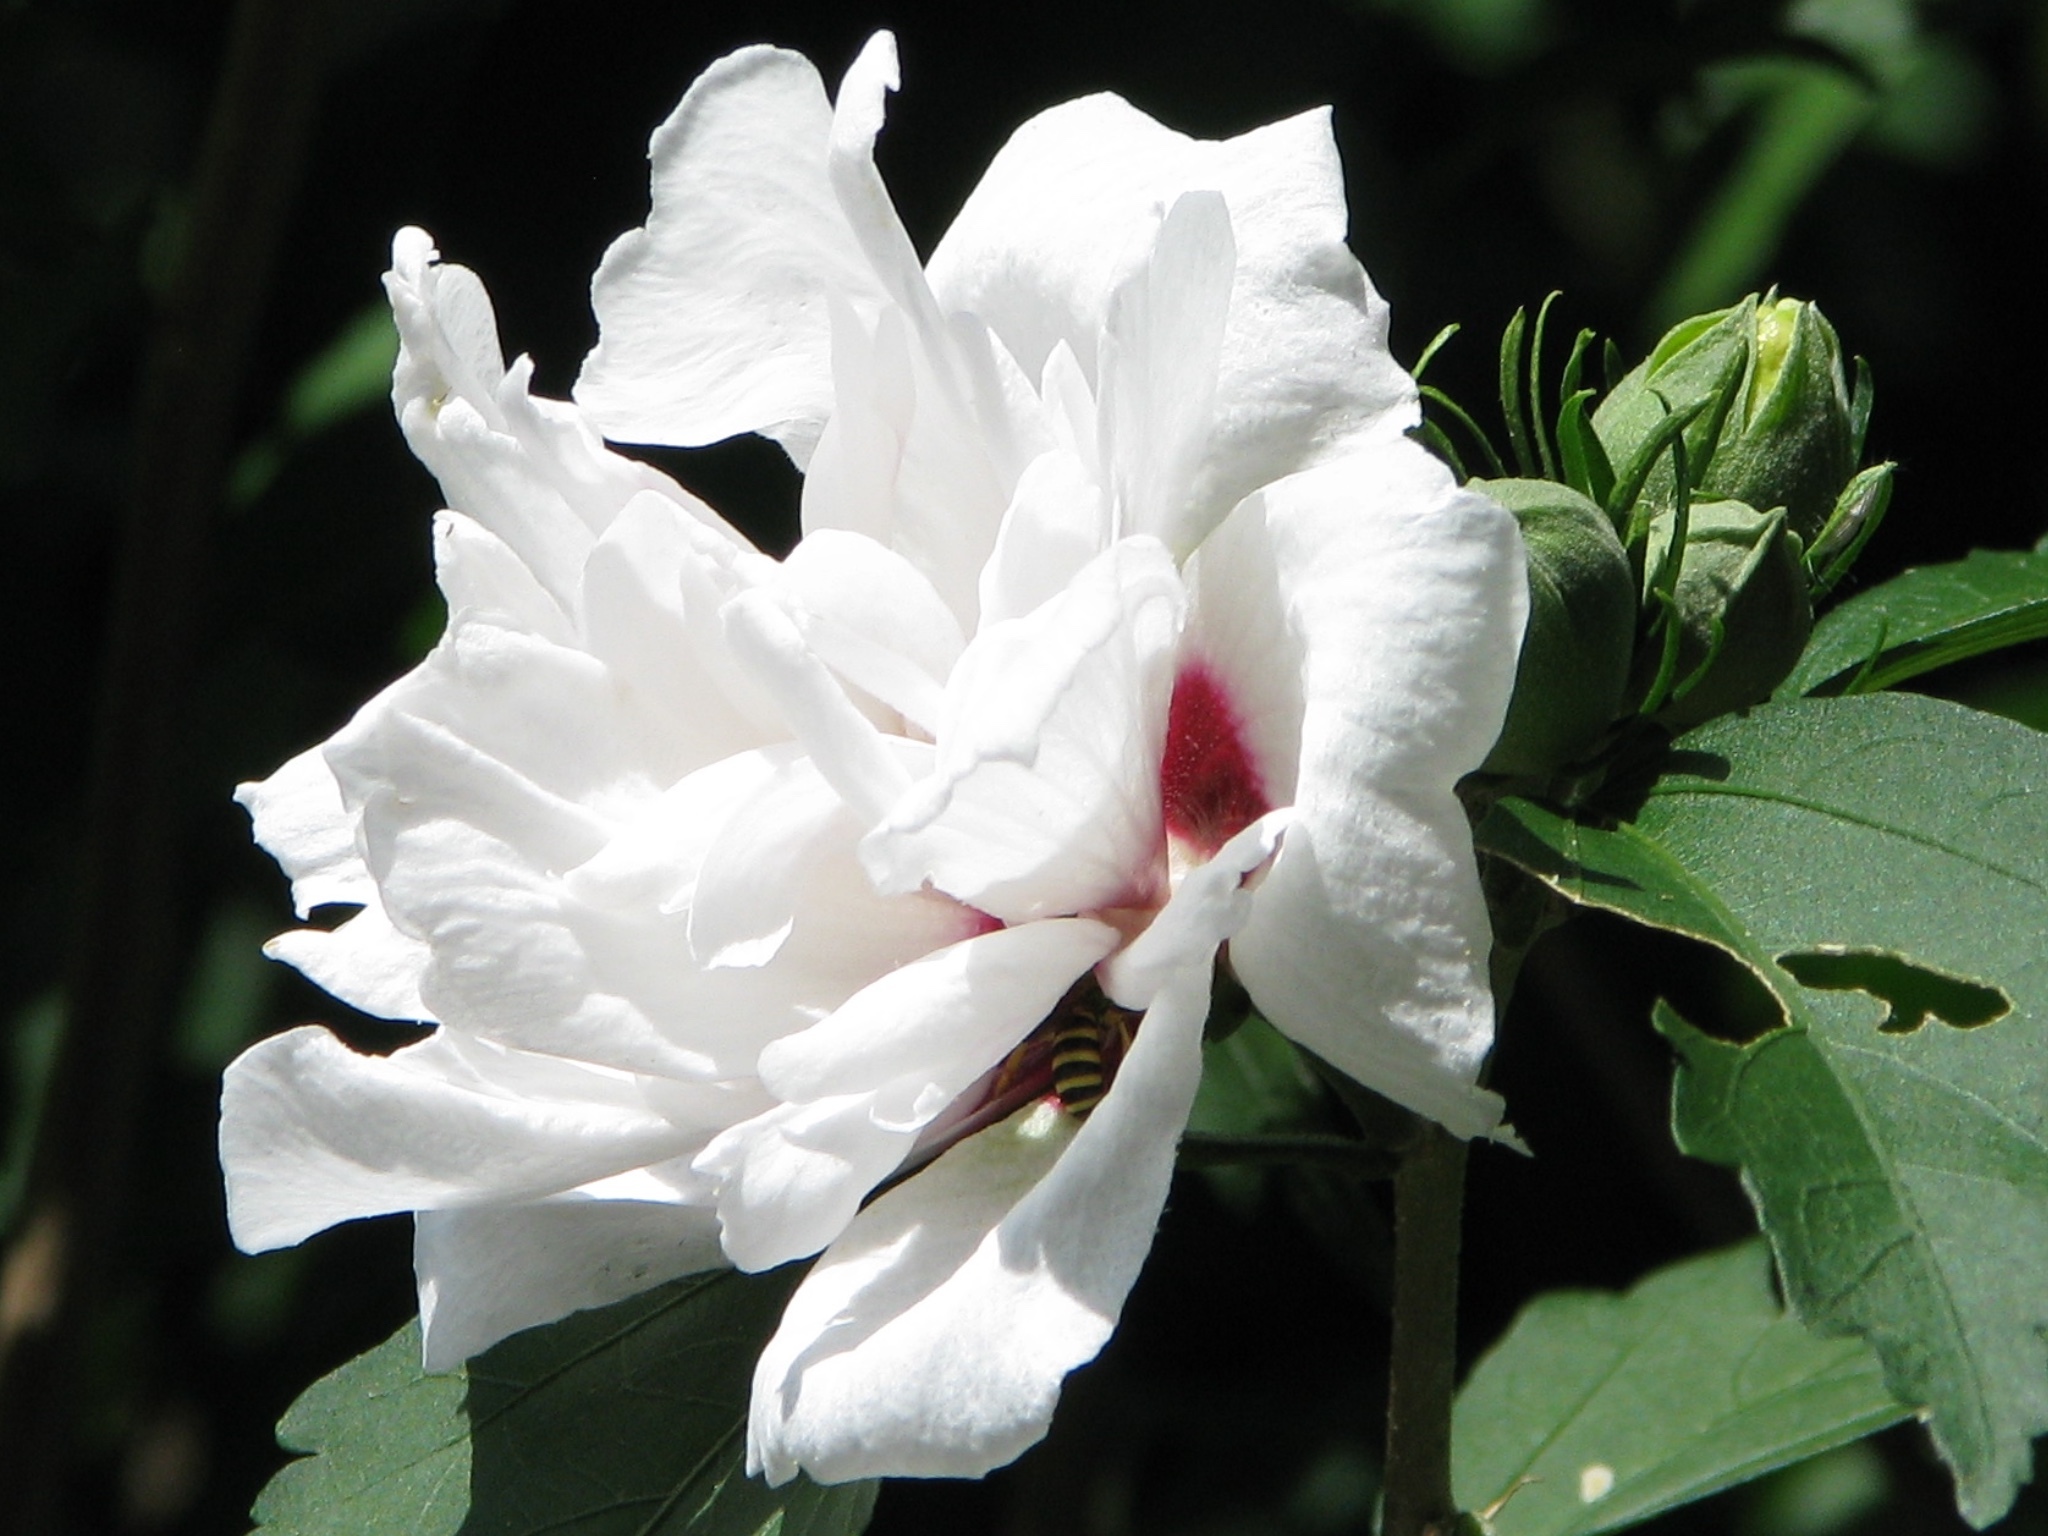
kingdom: Plantae
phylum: Tracheophyta
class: Magnoliopsida
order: Malvales
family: Malvaceae
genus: Hibiscus
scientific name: Hibiscus syriacus
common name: Syrian ketmia
